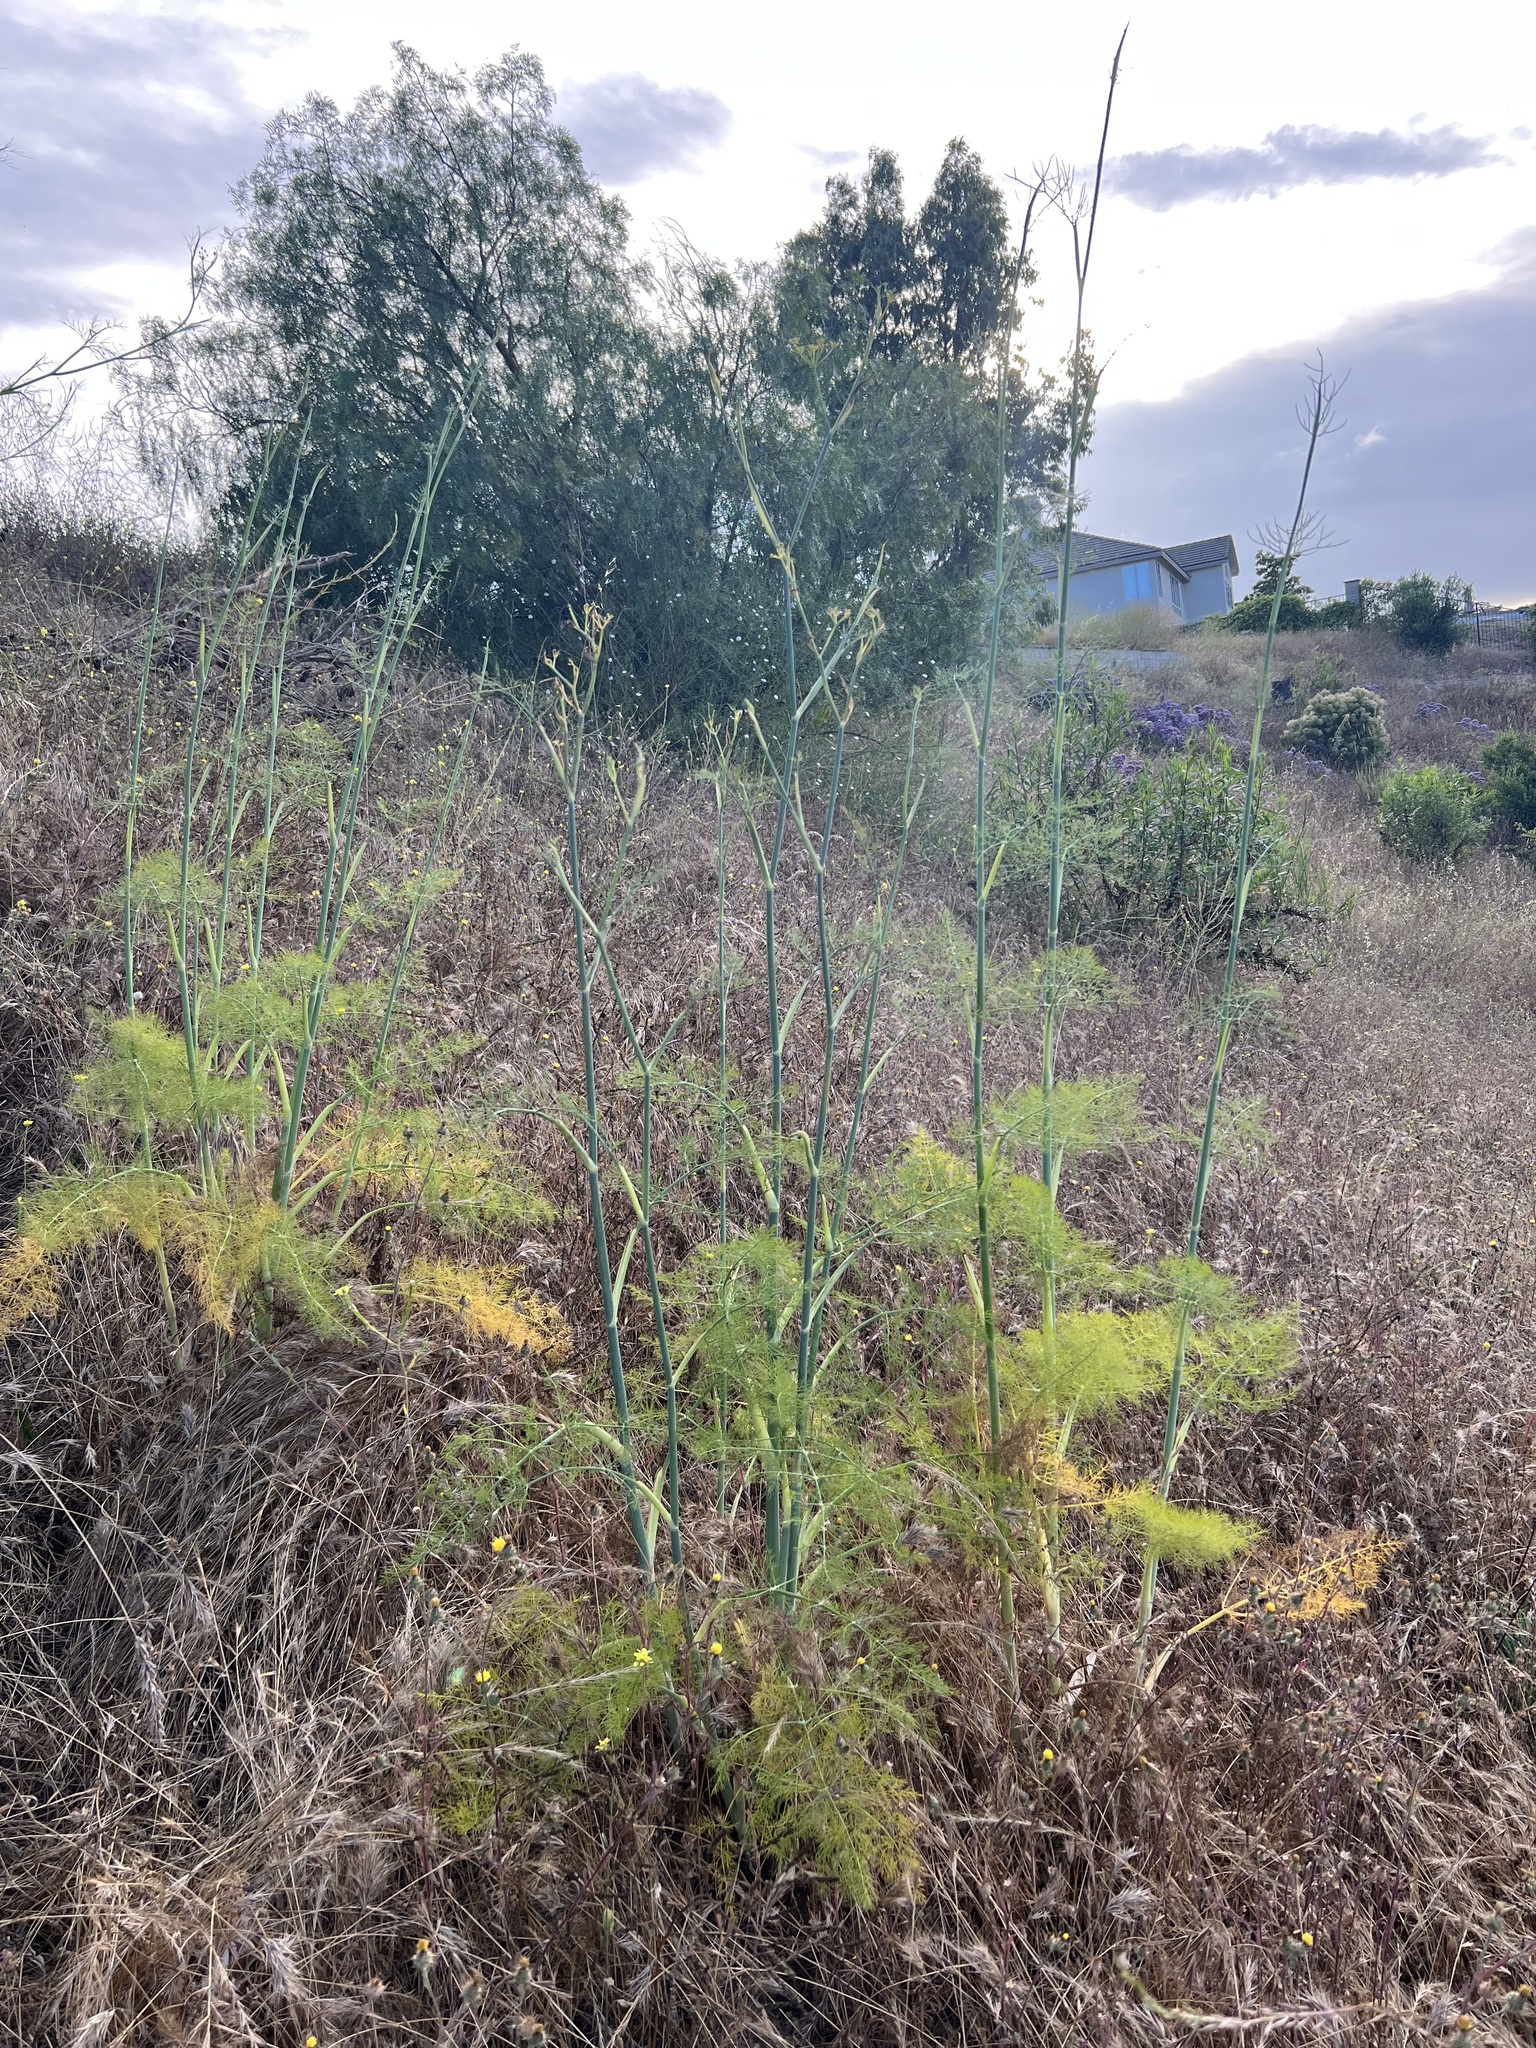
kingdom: Plantae
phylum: Tracheophyta
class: Magnoliopsida
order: Apiales
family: Apiaceae
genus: Foeniculum
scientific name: Foeniculum vulgare
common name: Fennel
